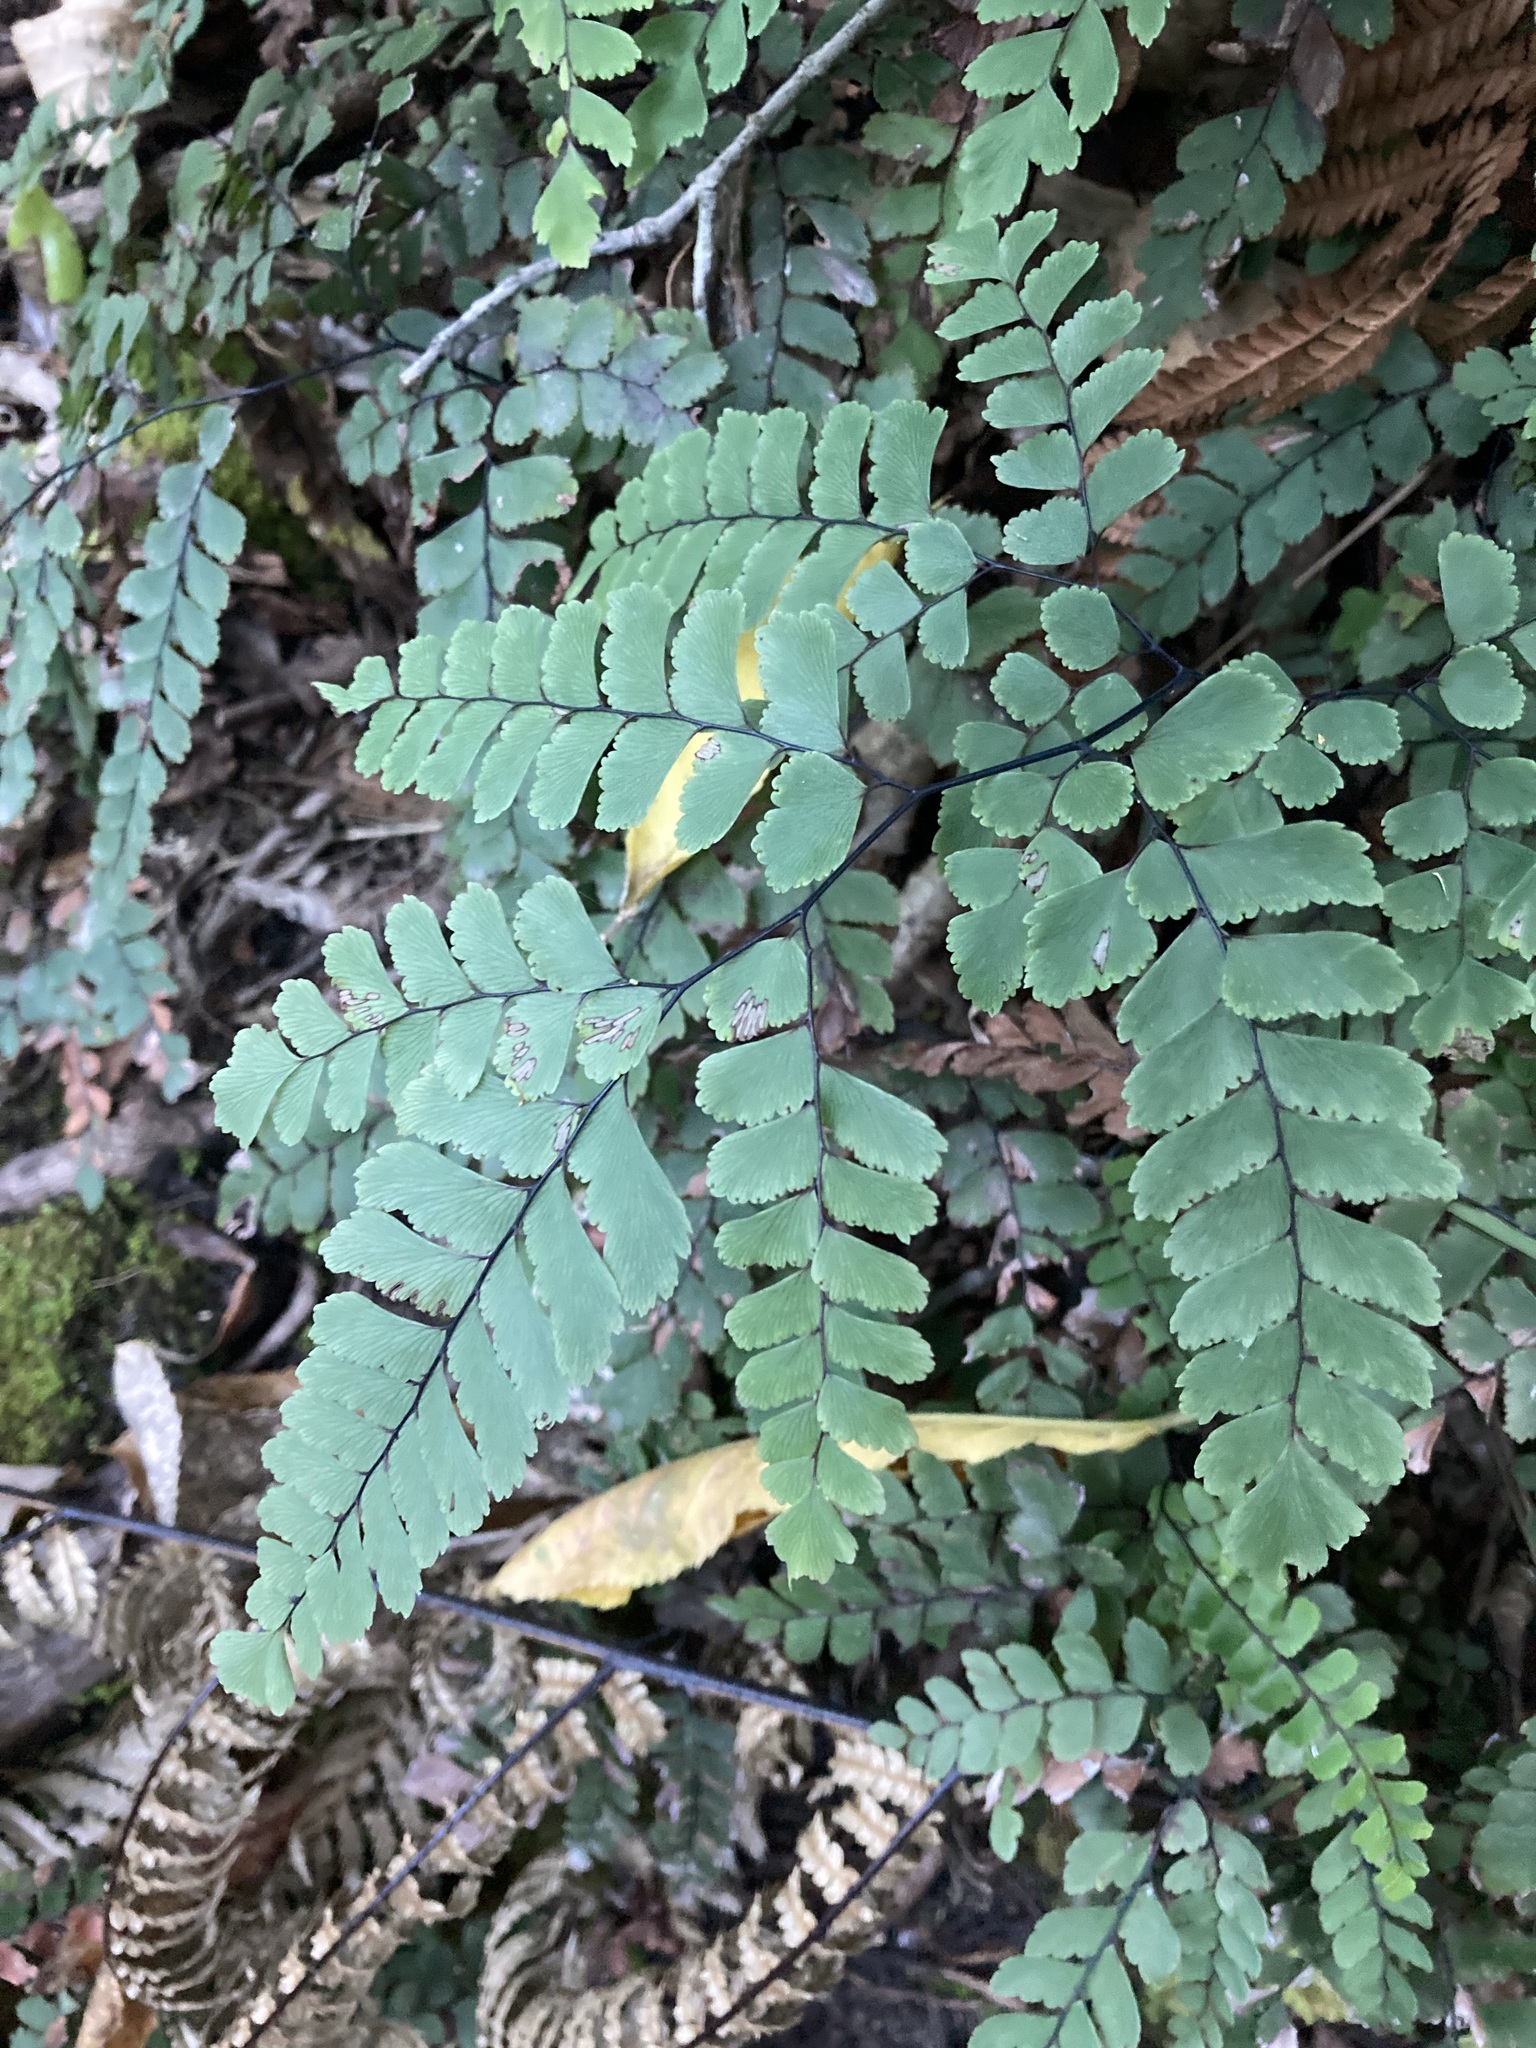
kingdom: Plantae
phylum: Tracheophyta
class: Polypodiopsida
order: Polypodiales
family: Pteridaceae
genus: Adiantum
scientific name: Adiantum cunninghamii
